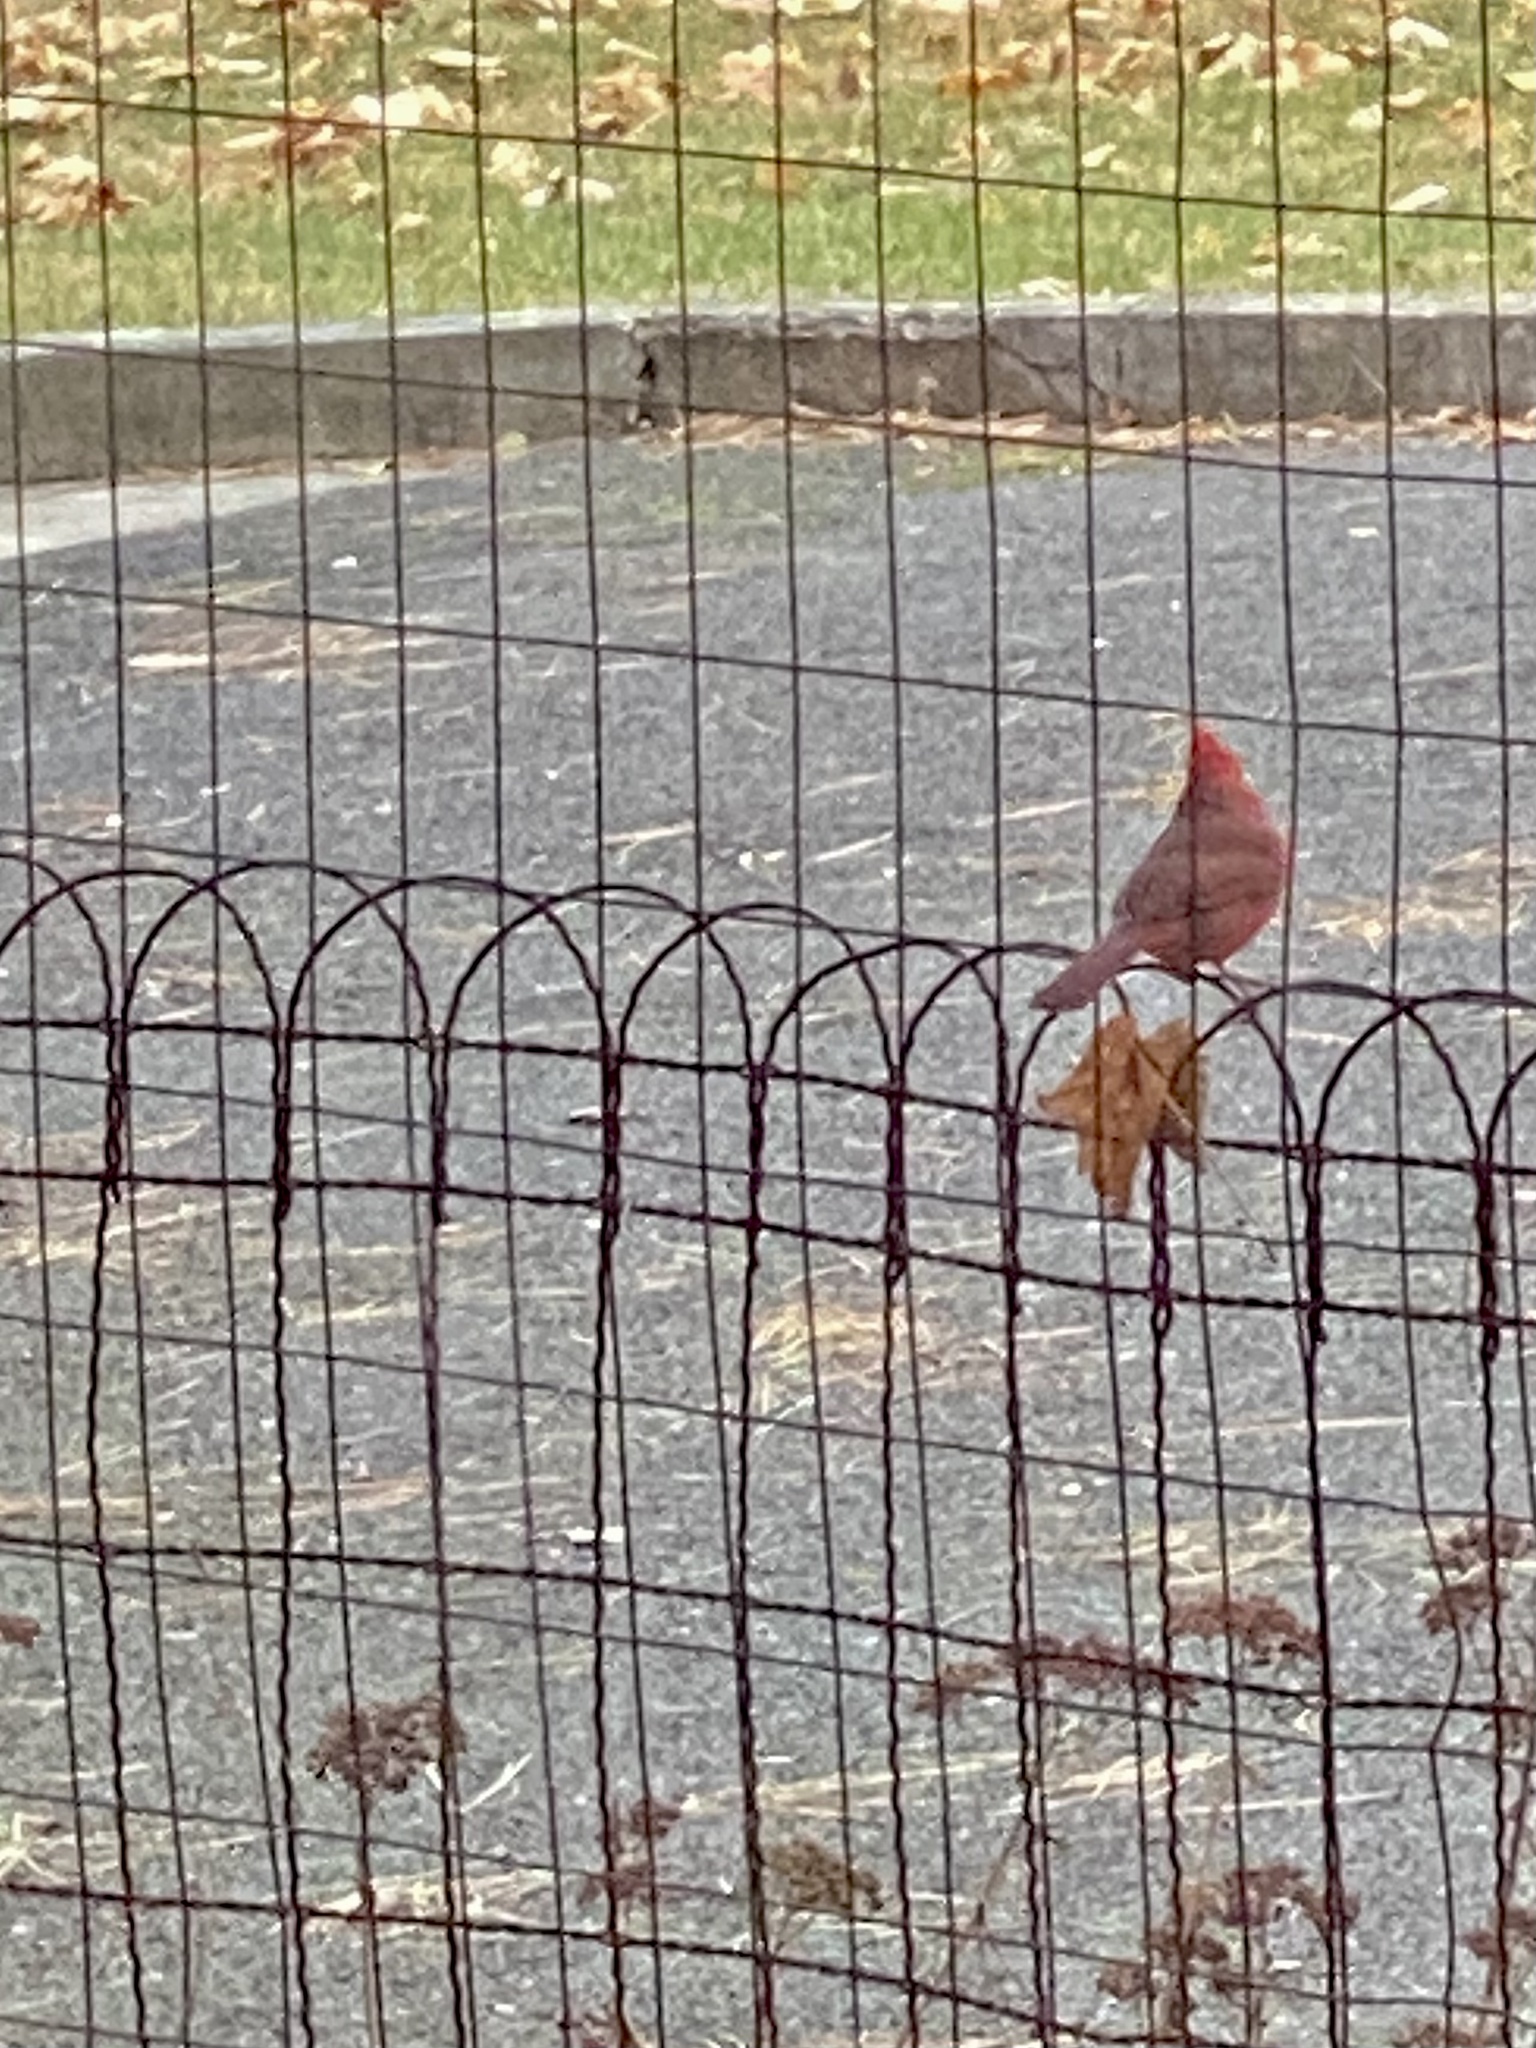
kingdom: Animalia
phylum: Chordata
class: Aves
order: Passeriformes
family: Cardinalidae
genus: Cardinalis
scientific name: Cardinalis cardinalis
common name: Northern cardinal
